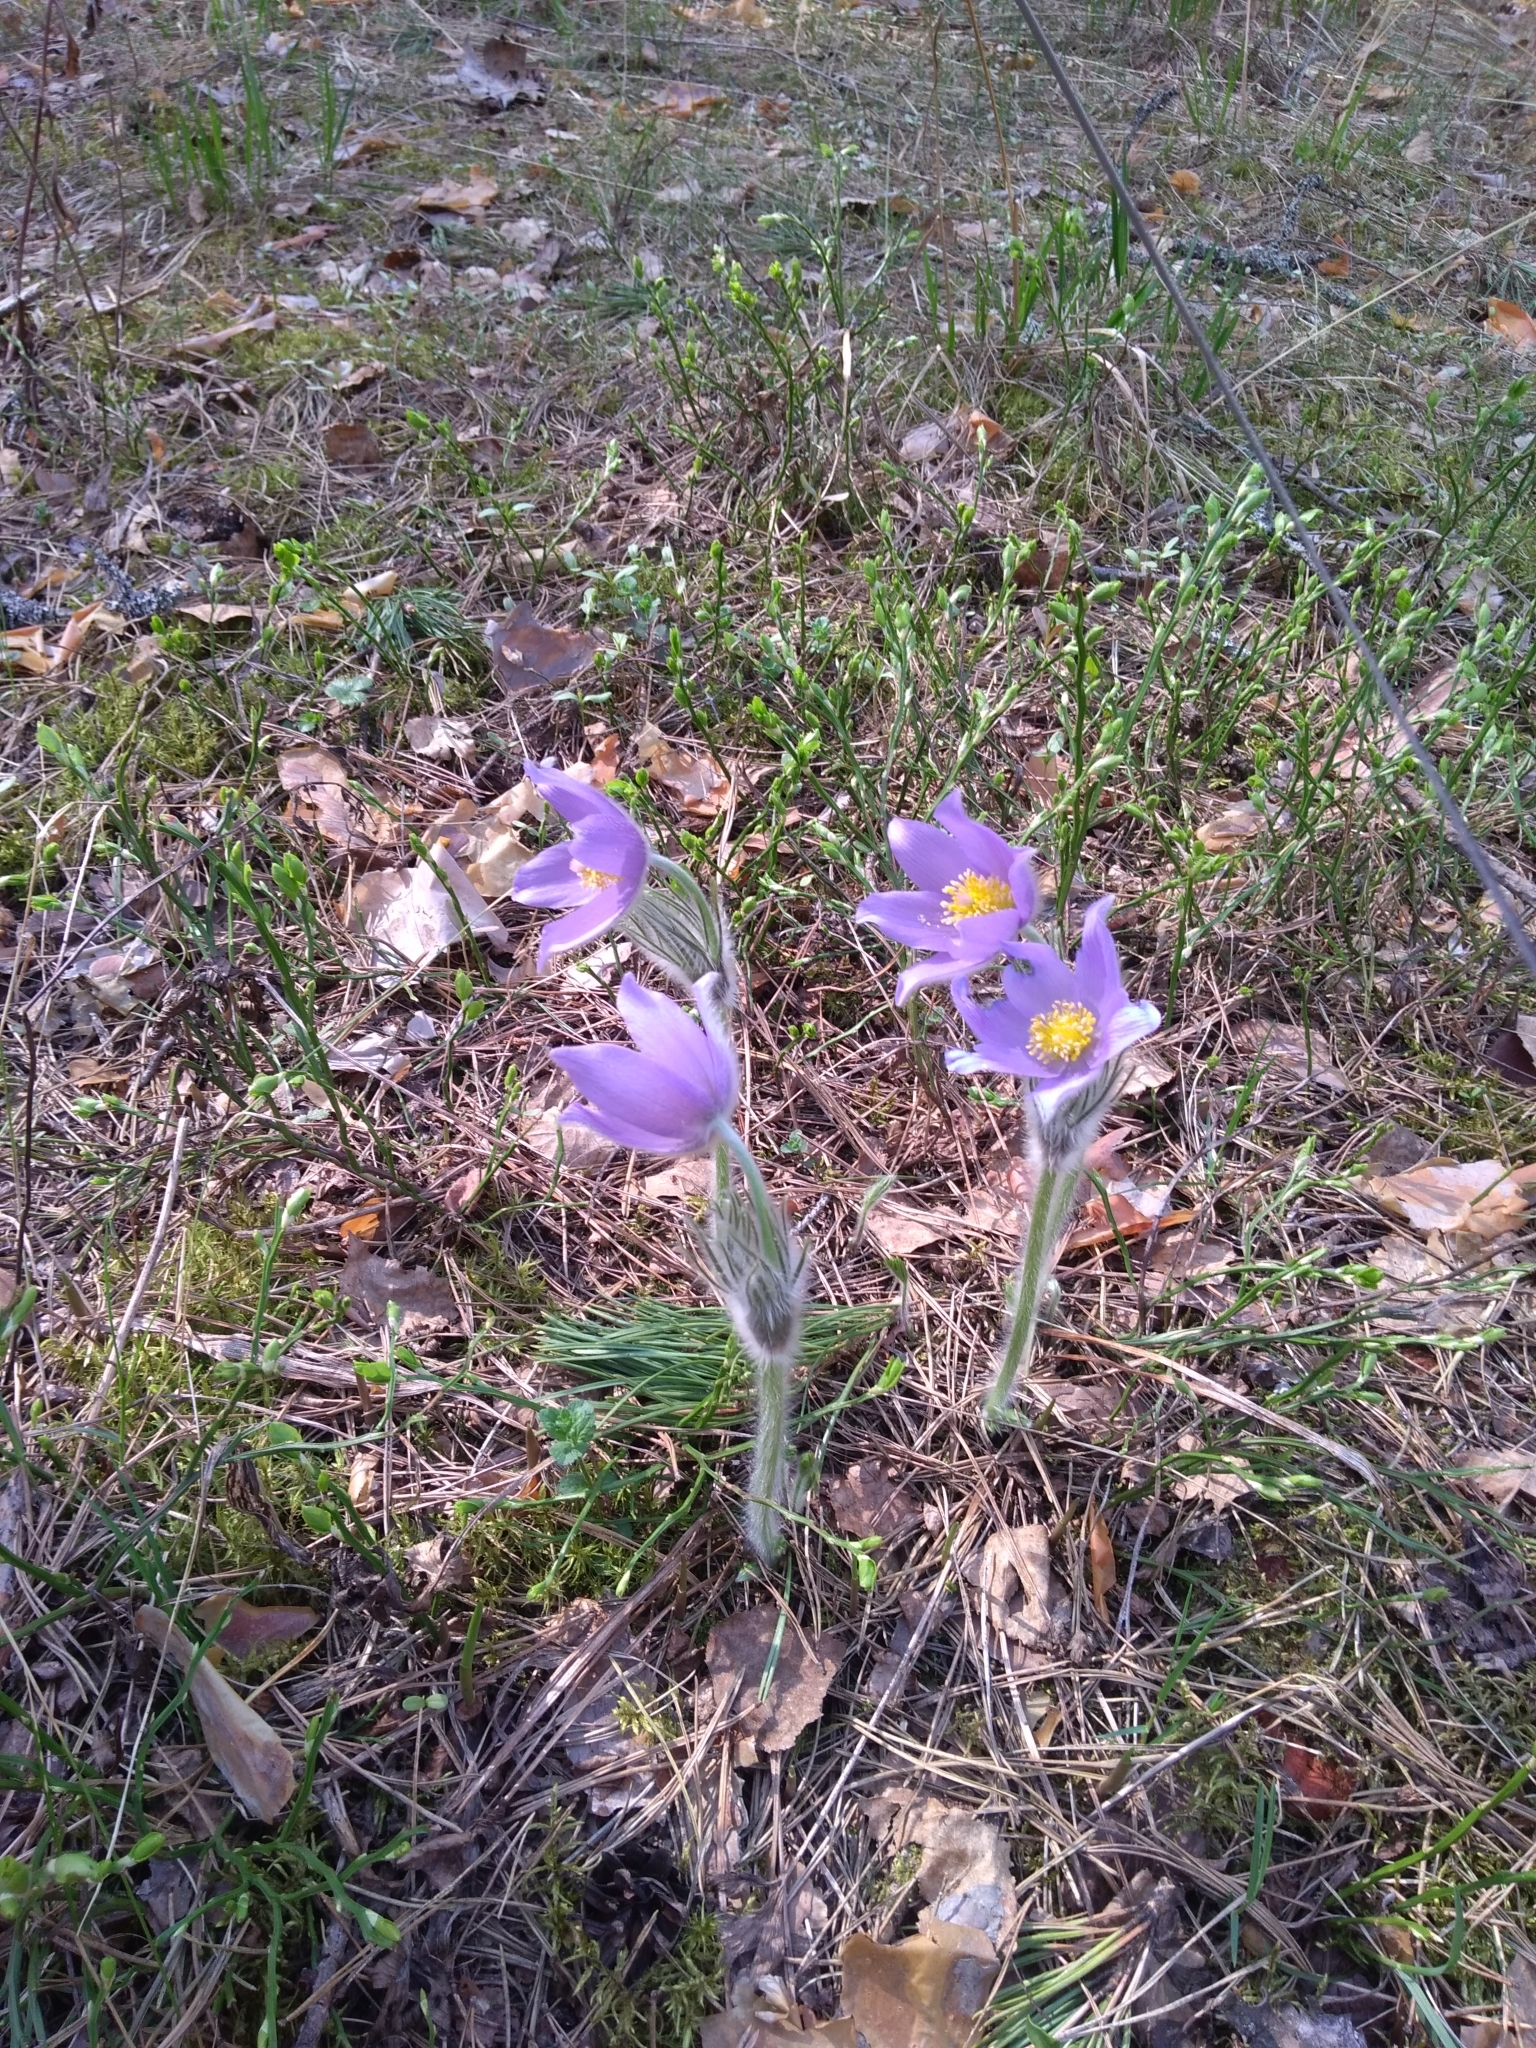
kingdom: Plantae
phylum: Tracheophyta
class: Magnoliopsida
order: Ranunculales
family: Ranunculaceae
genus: Pulsatilla
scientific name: Pulsatilla patens
